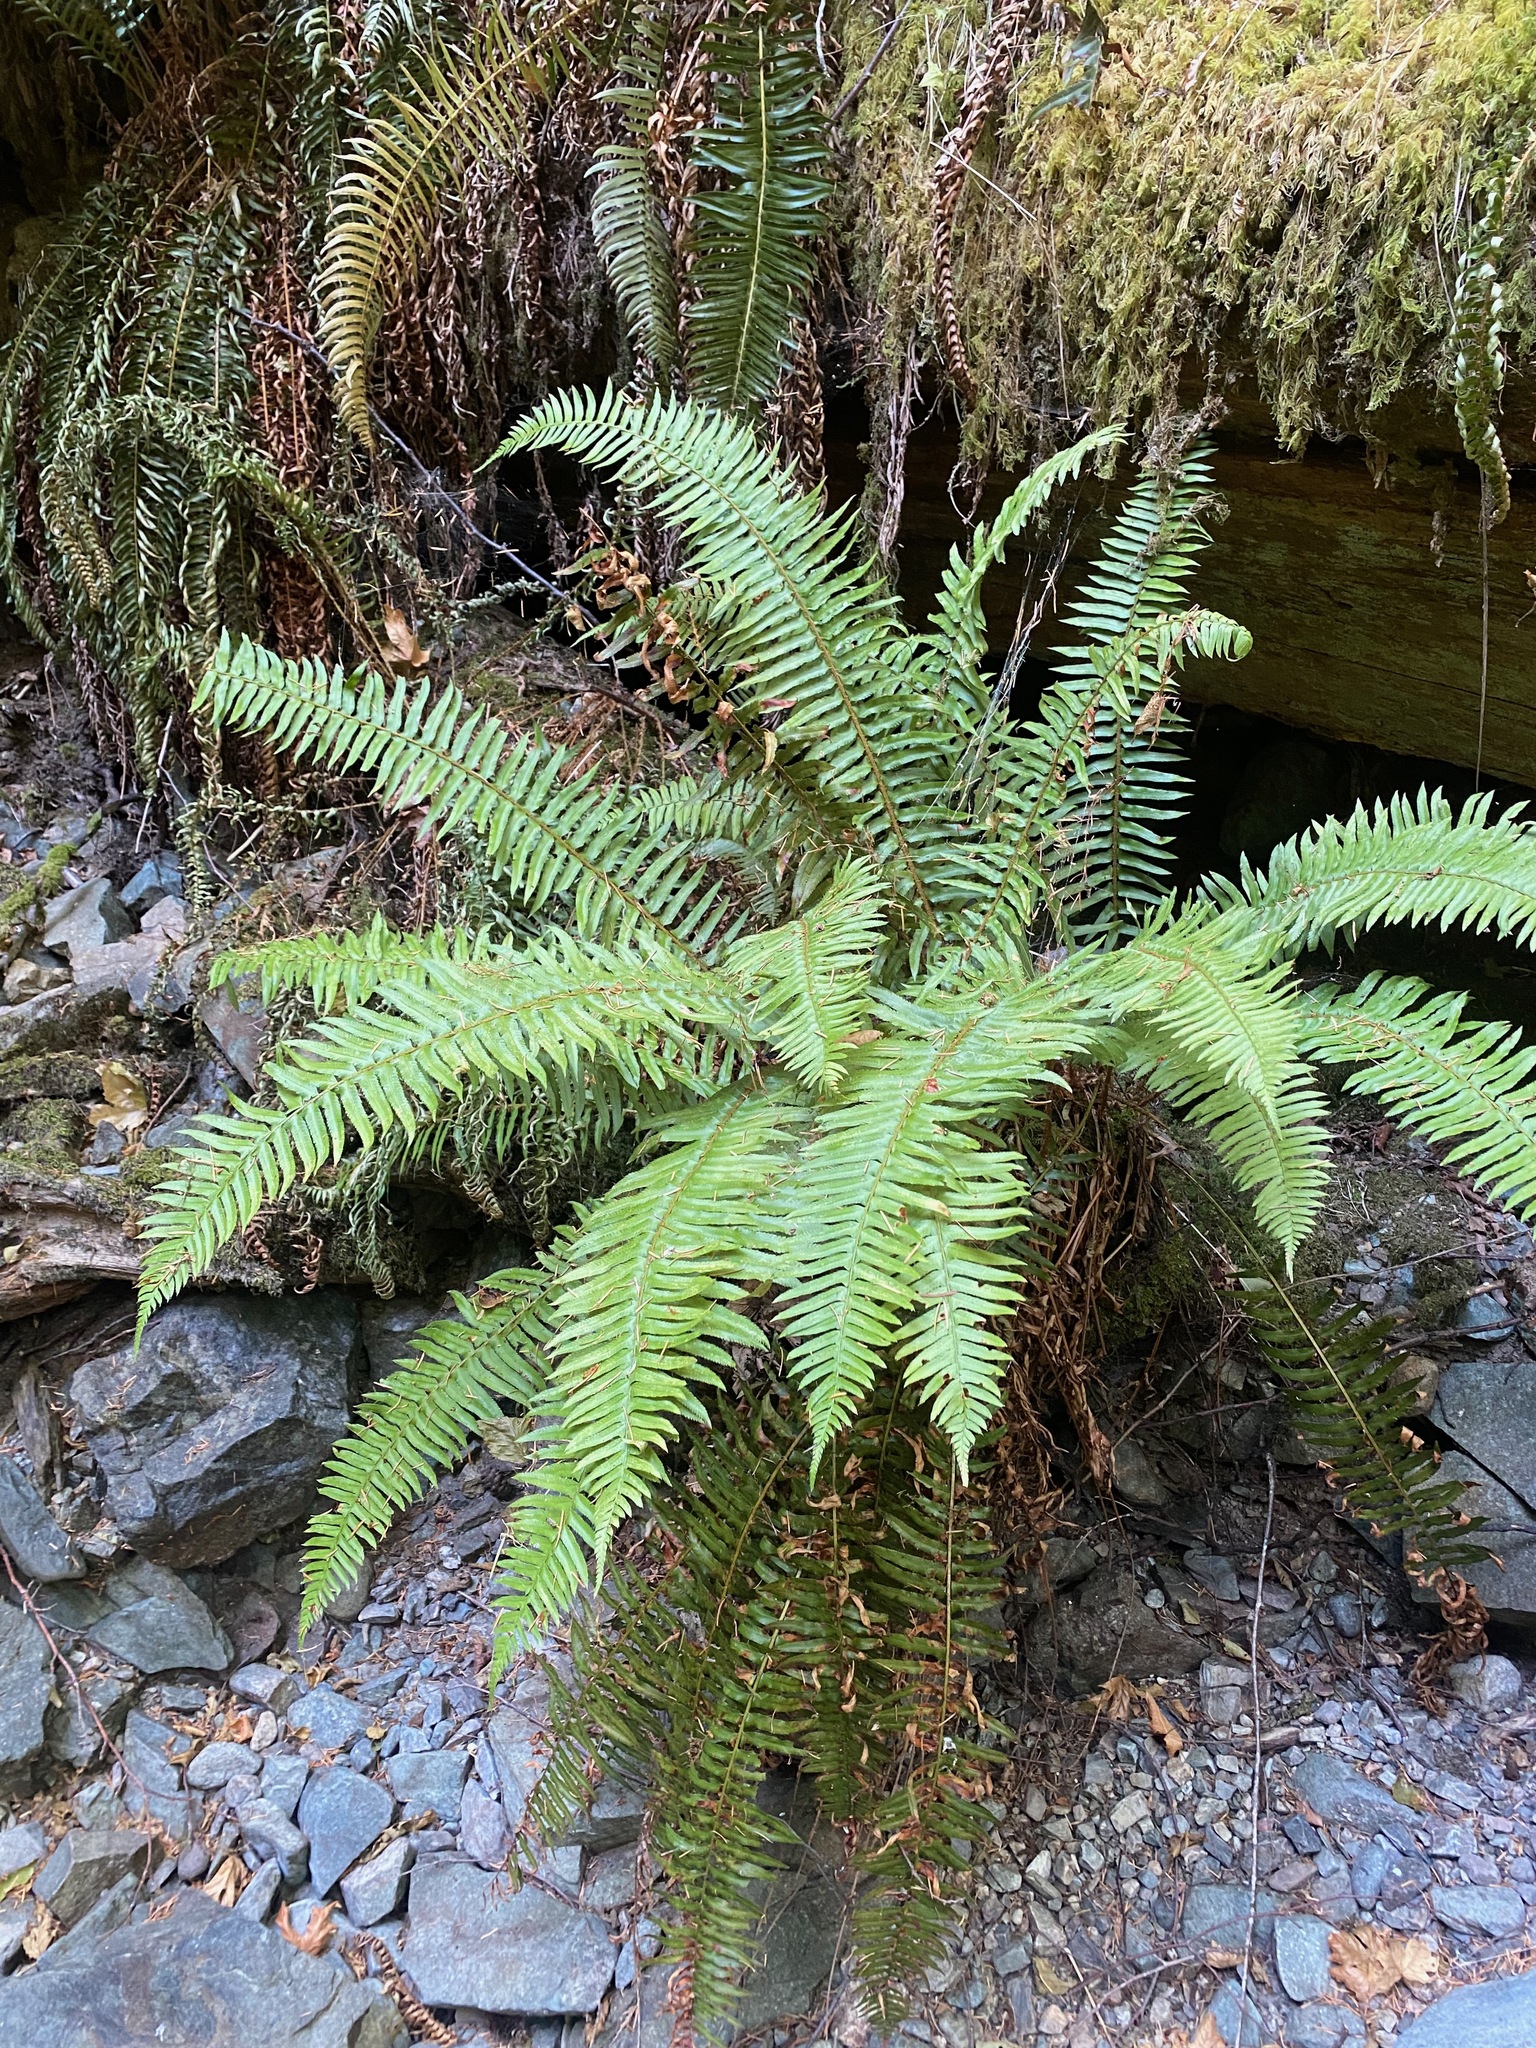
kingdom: Plantae
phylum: Tracheophyta
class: Polypodiopsida
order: Polypodiales
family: Dryopteridaceae
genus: Polystichum
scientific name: Polystichum munitum
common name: Western sword-fern
